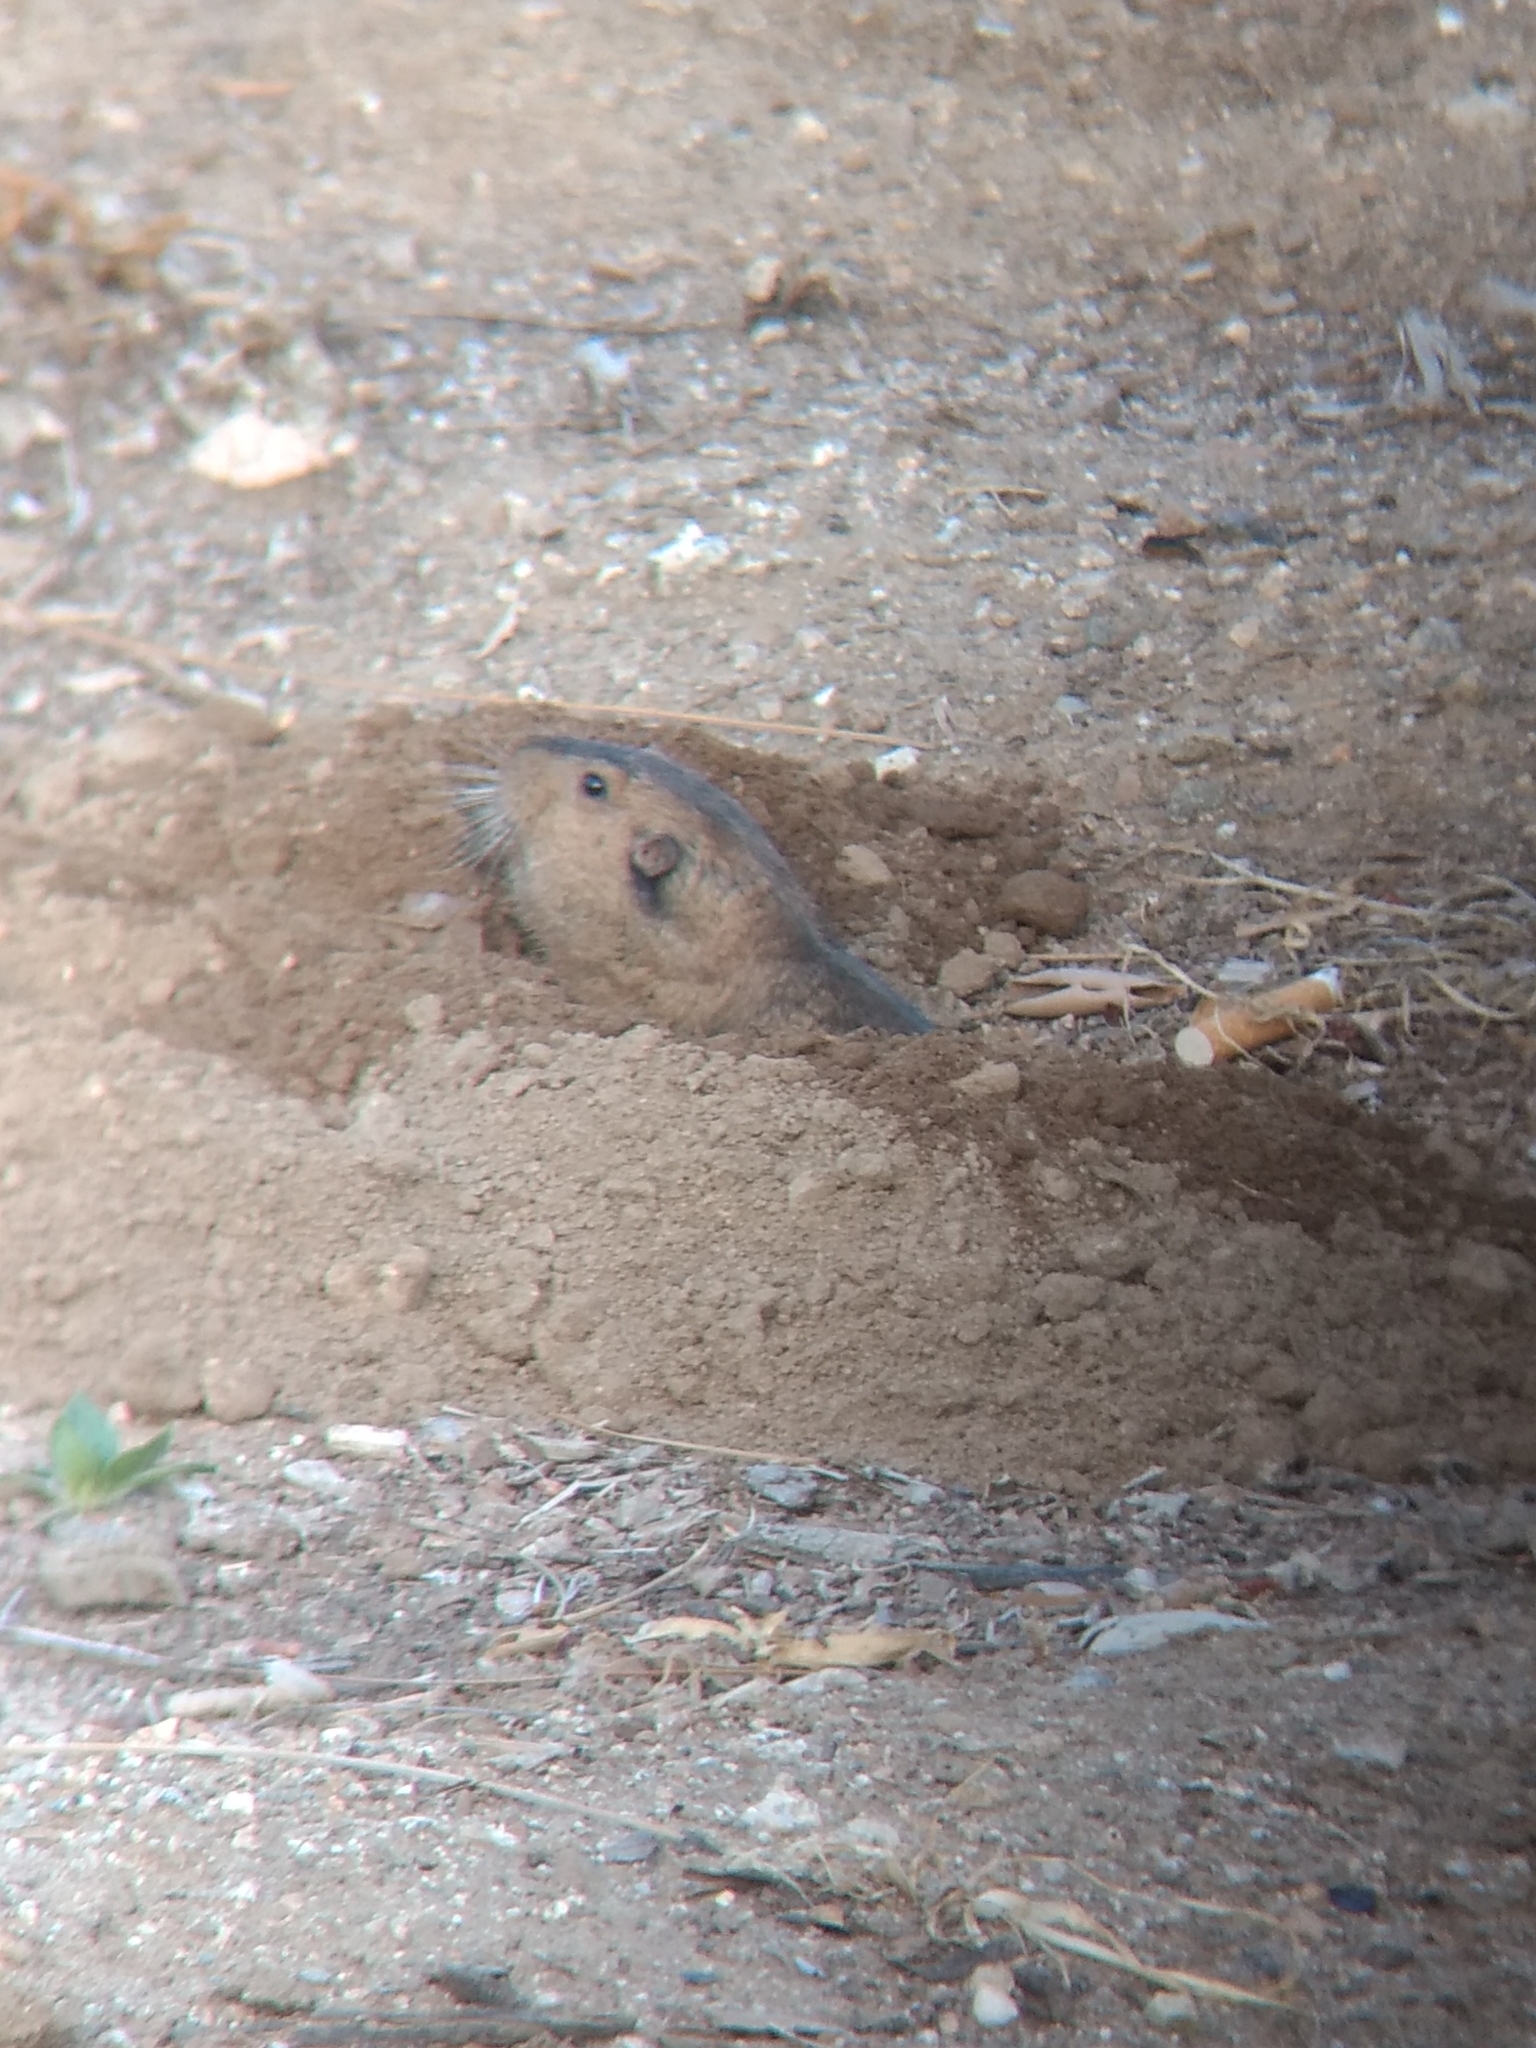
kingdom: Animalia
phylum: Chordata
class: Mammalia
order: Rodentia
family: Geomyidae
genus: Thomomys
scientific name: Thomomys bottae
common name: Botta's pocket gopher
